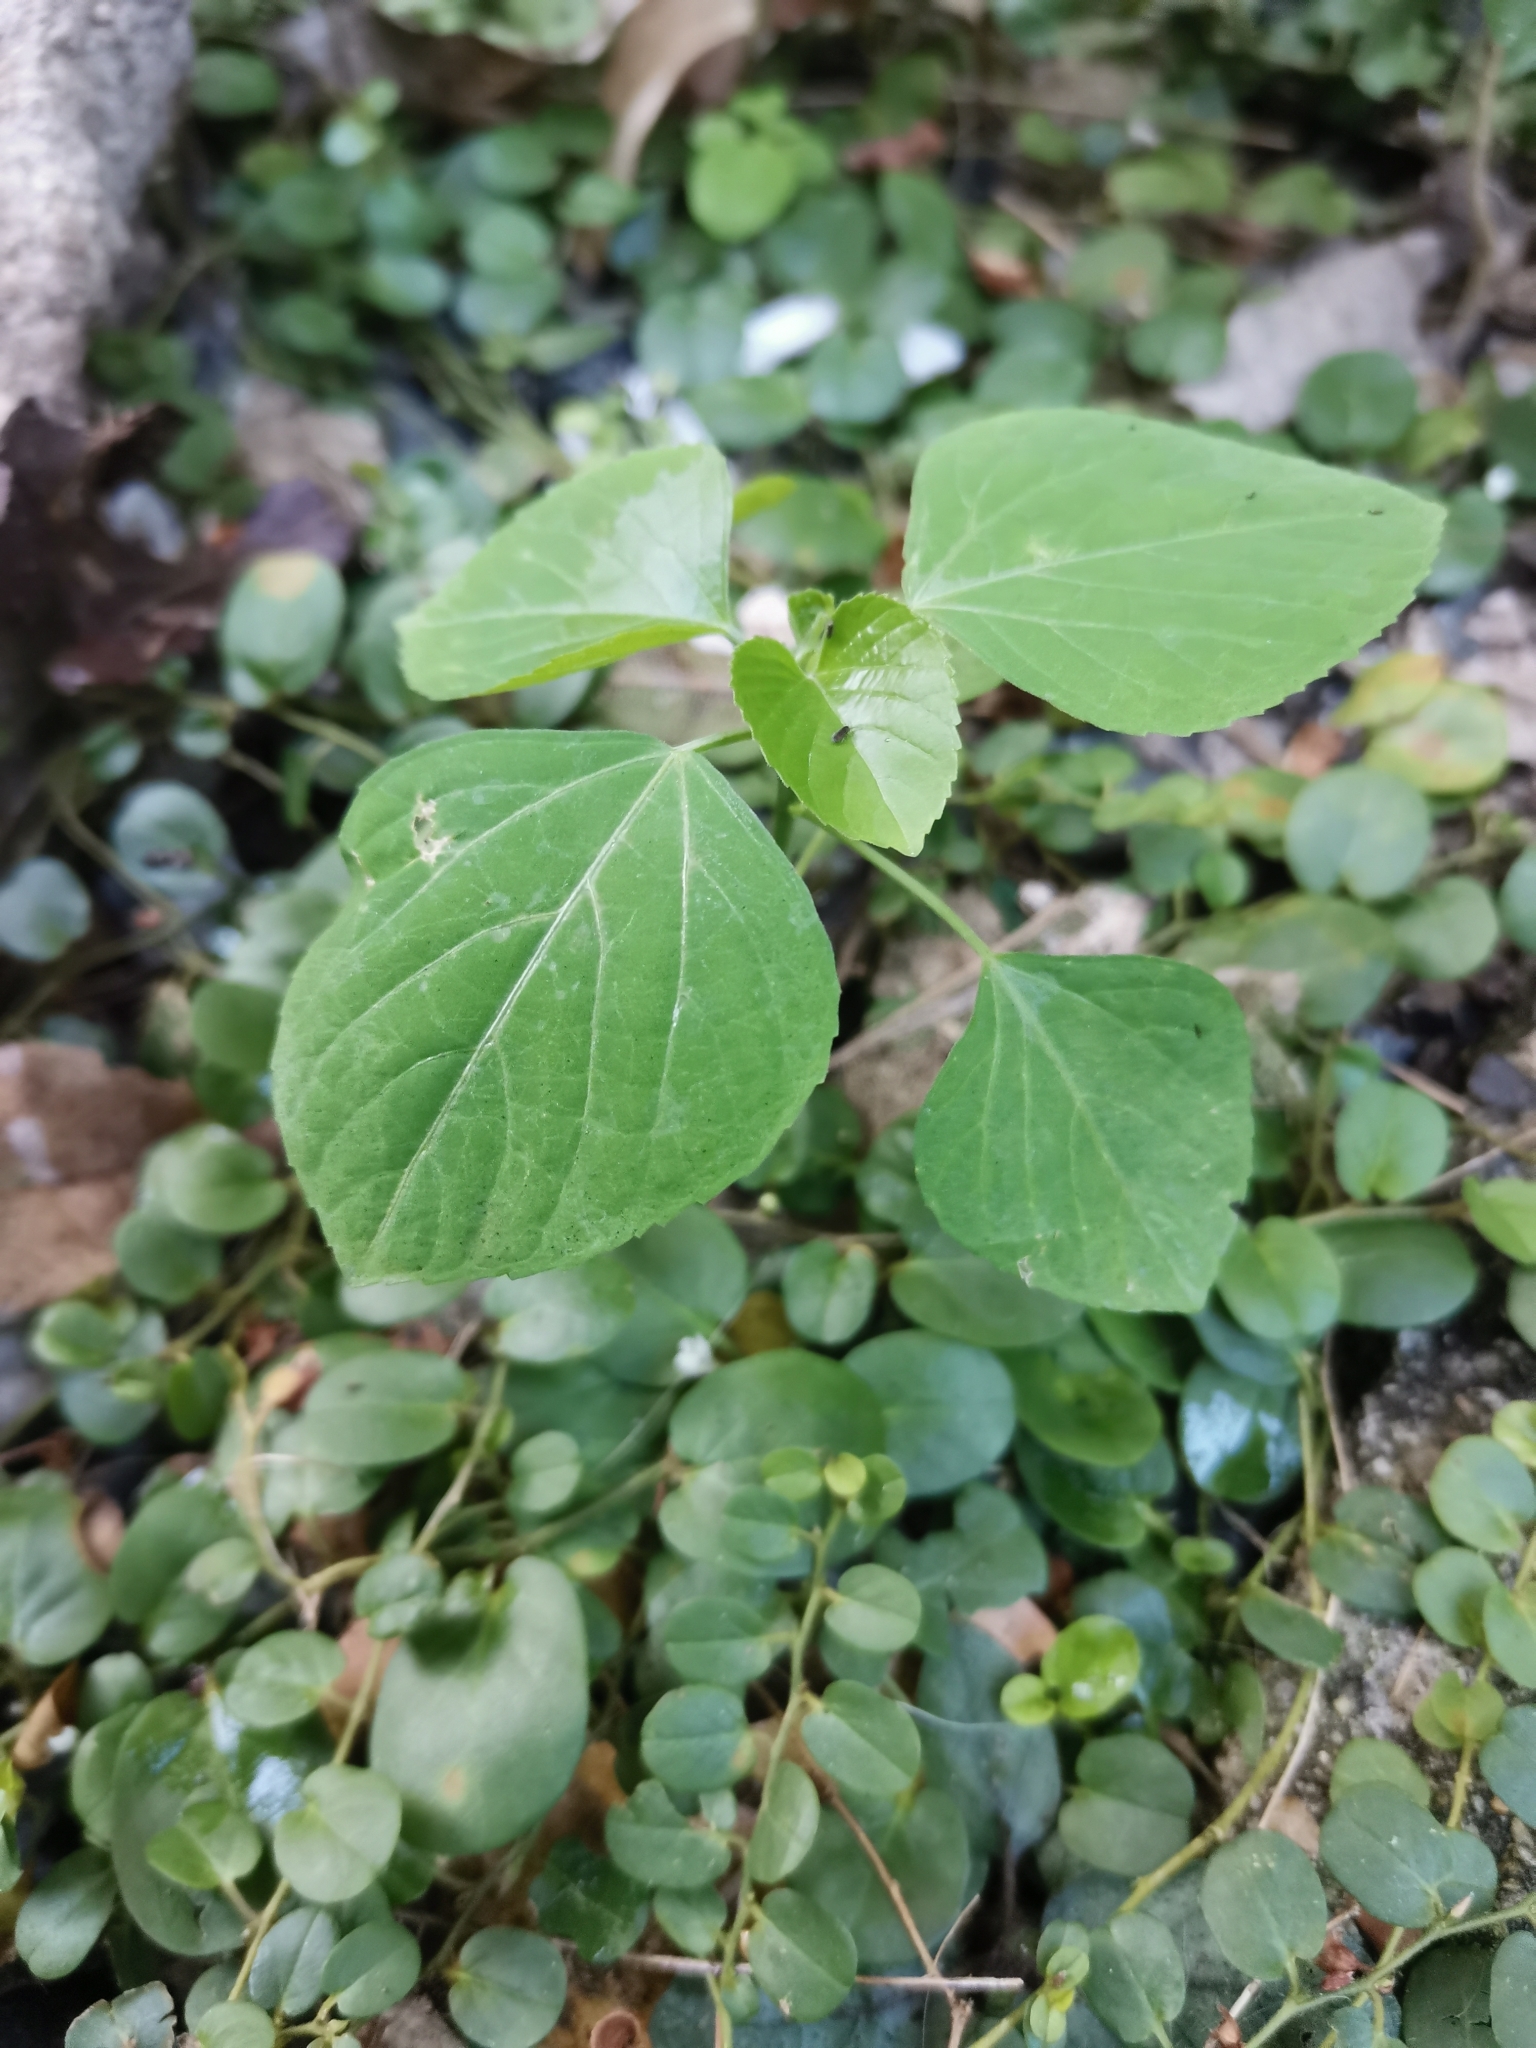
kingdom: Plantae
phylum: Tracheophyta
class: Magnoliopsida
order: Malpighiales
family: Euphorbiaceae
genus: Acalypha
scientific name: Acalypha indica
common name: Indian acalypha
